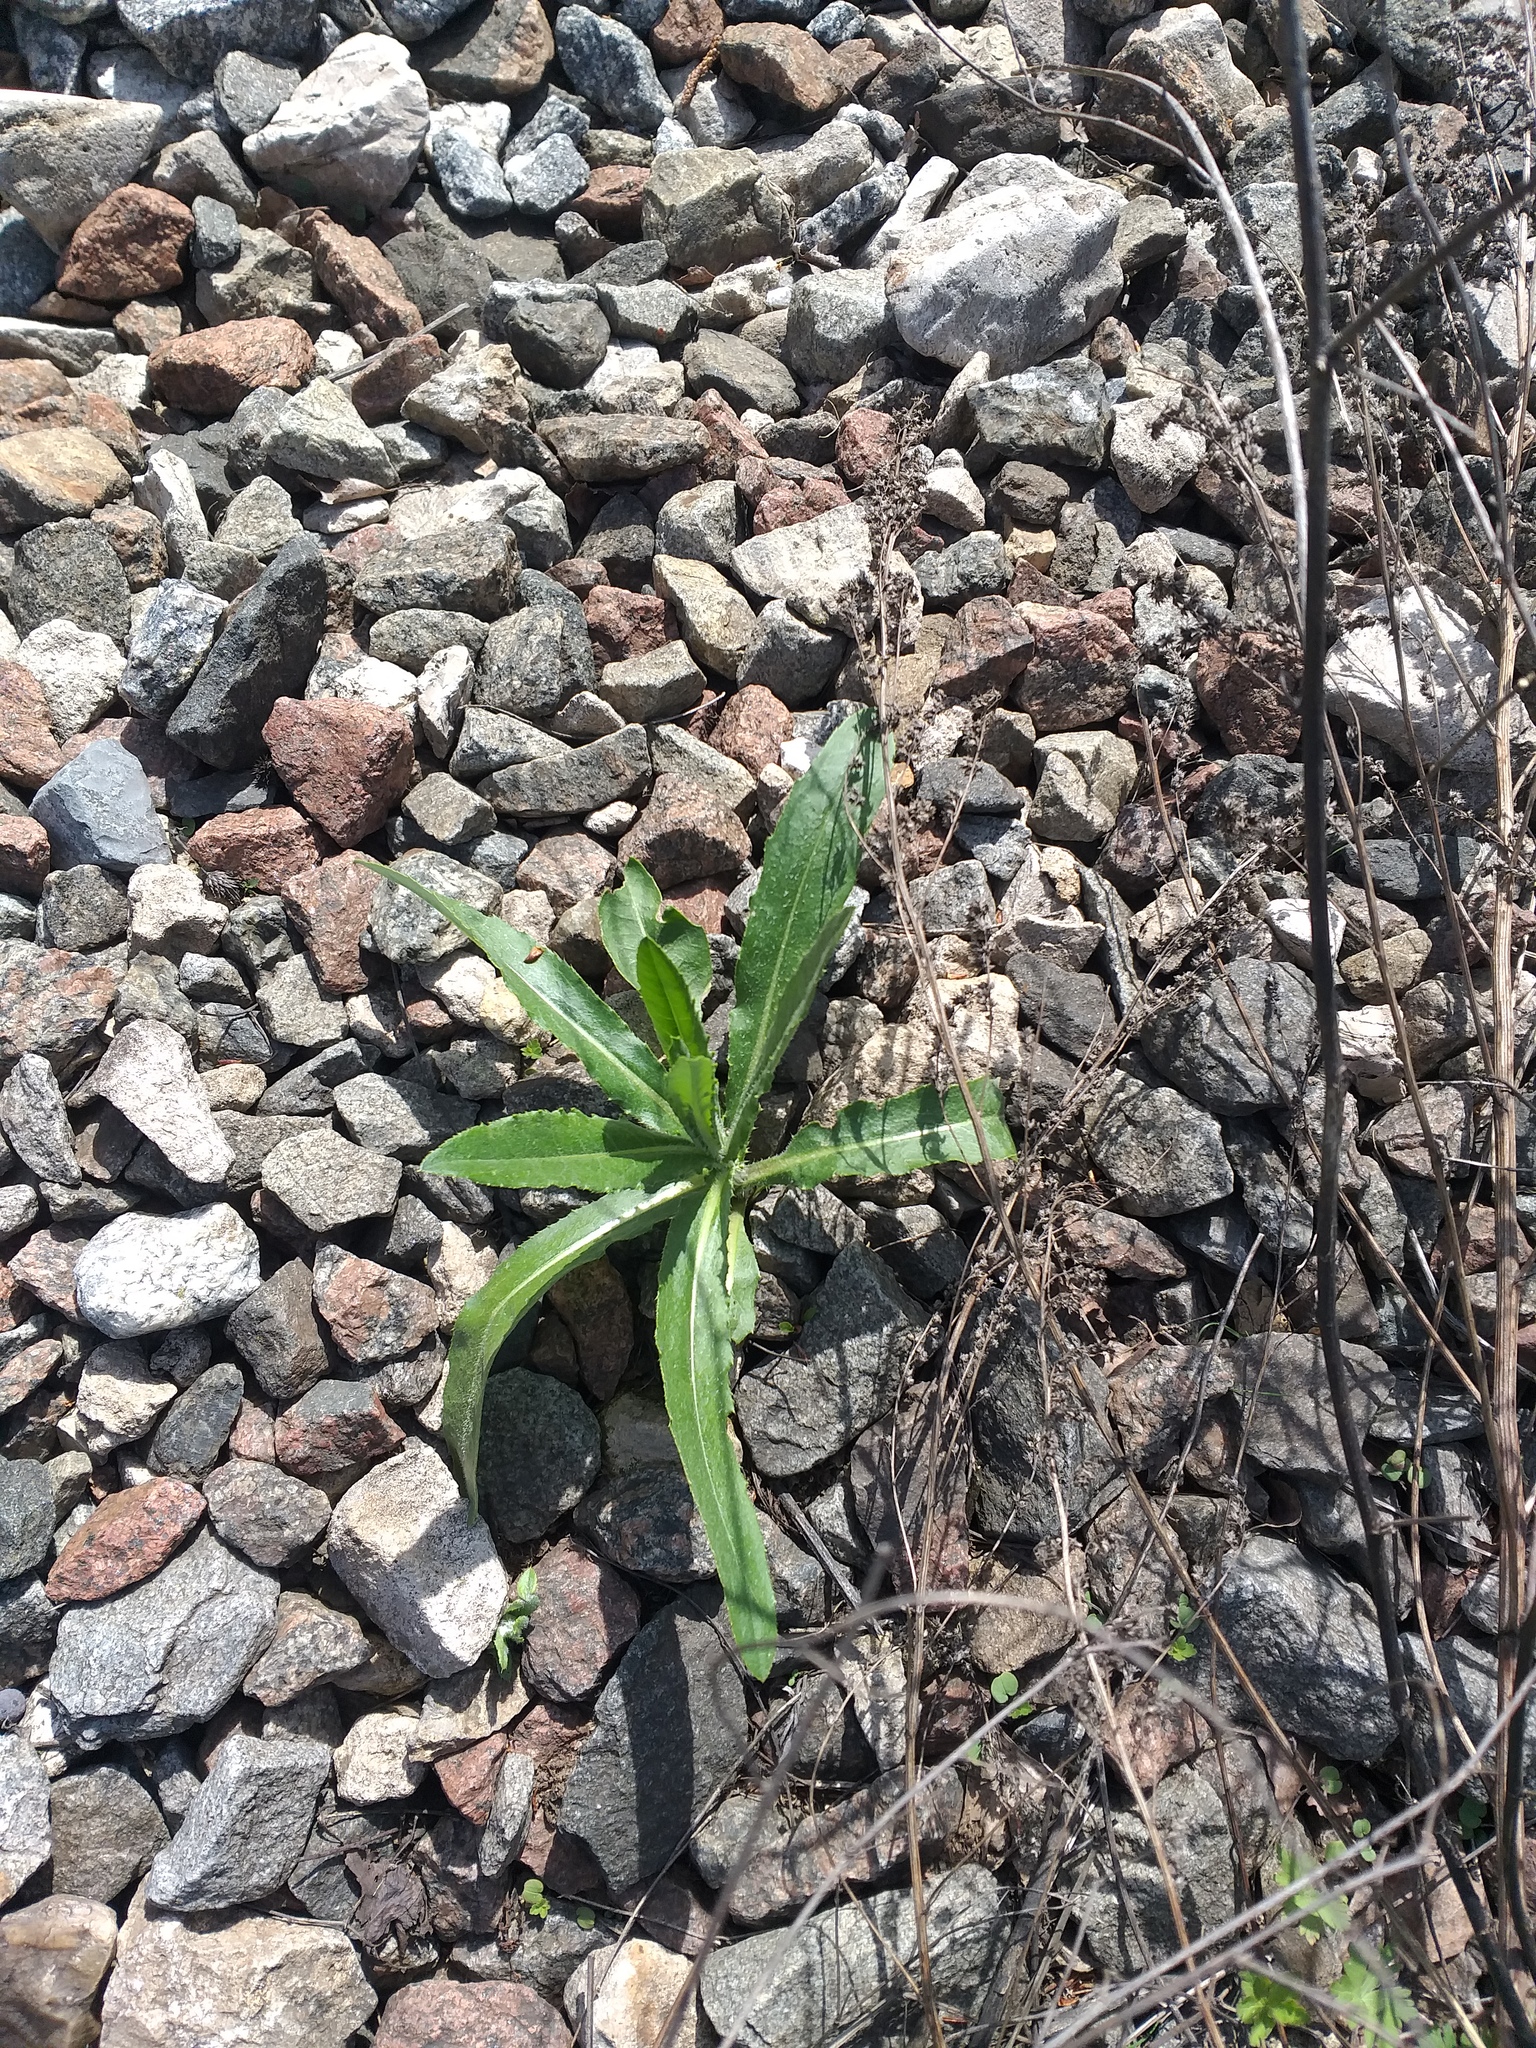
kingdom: Plantae
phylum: Tracheophyta
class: Magnoliopsida
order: Asterales
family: Asteraceae
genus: Cirsium
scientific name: Cirsium arvense
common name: Creeping thistle
